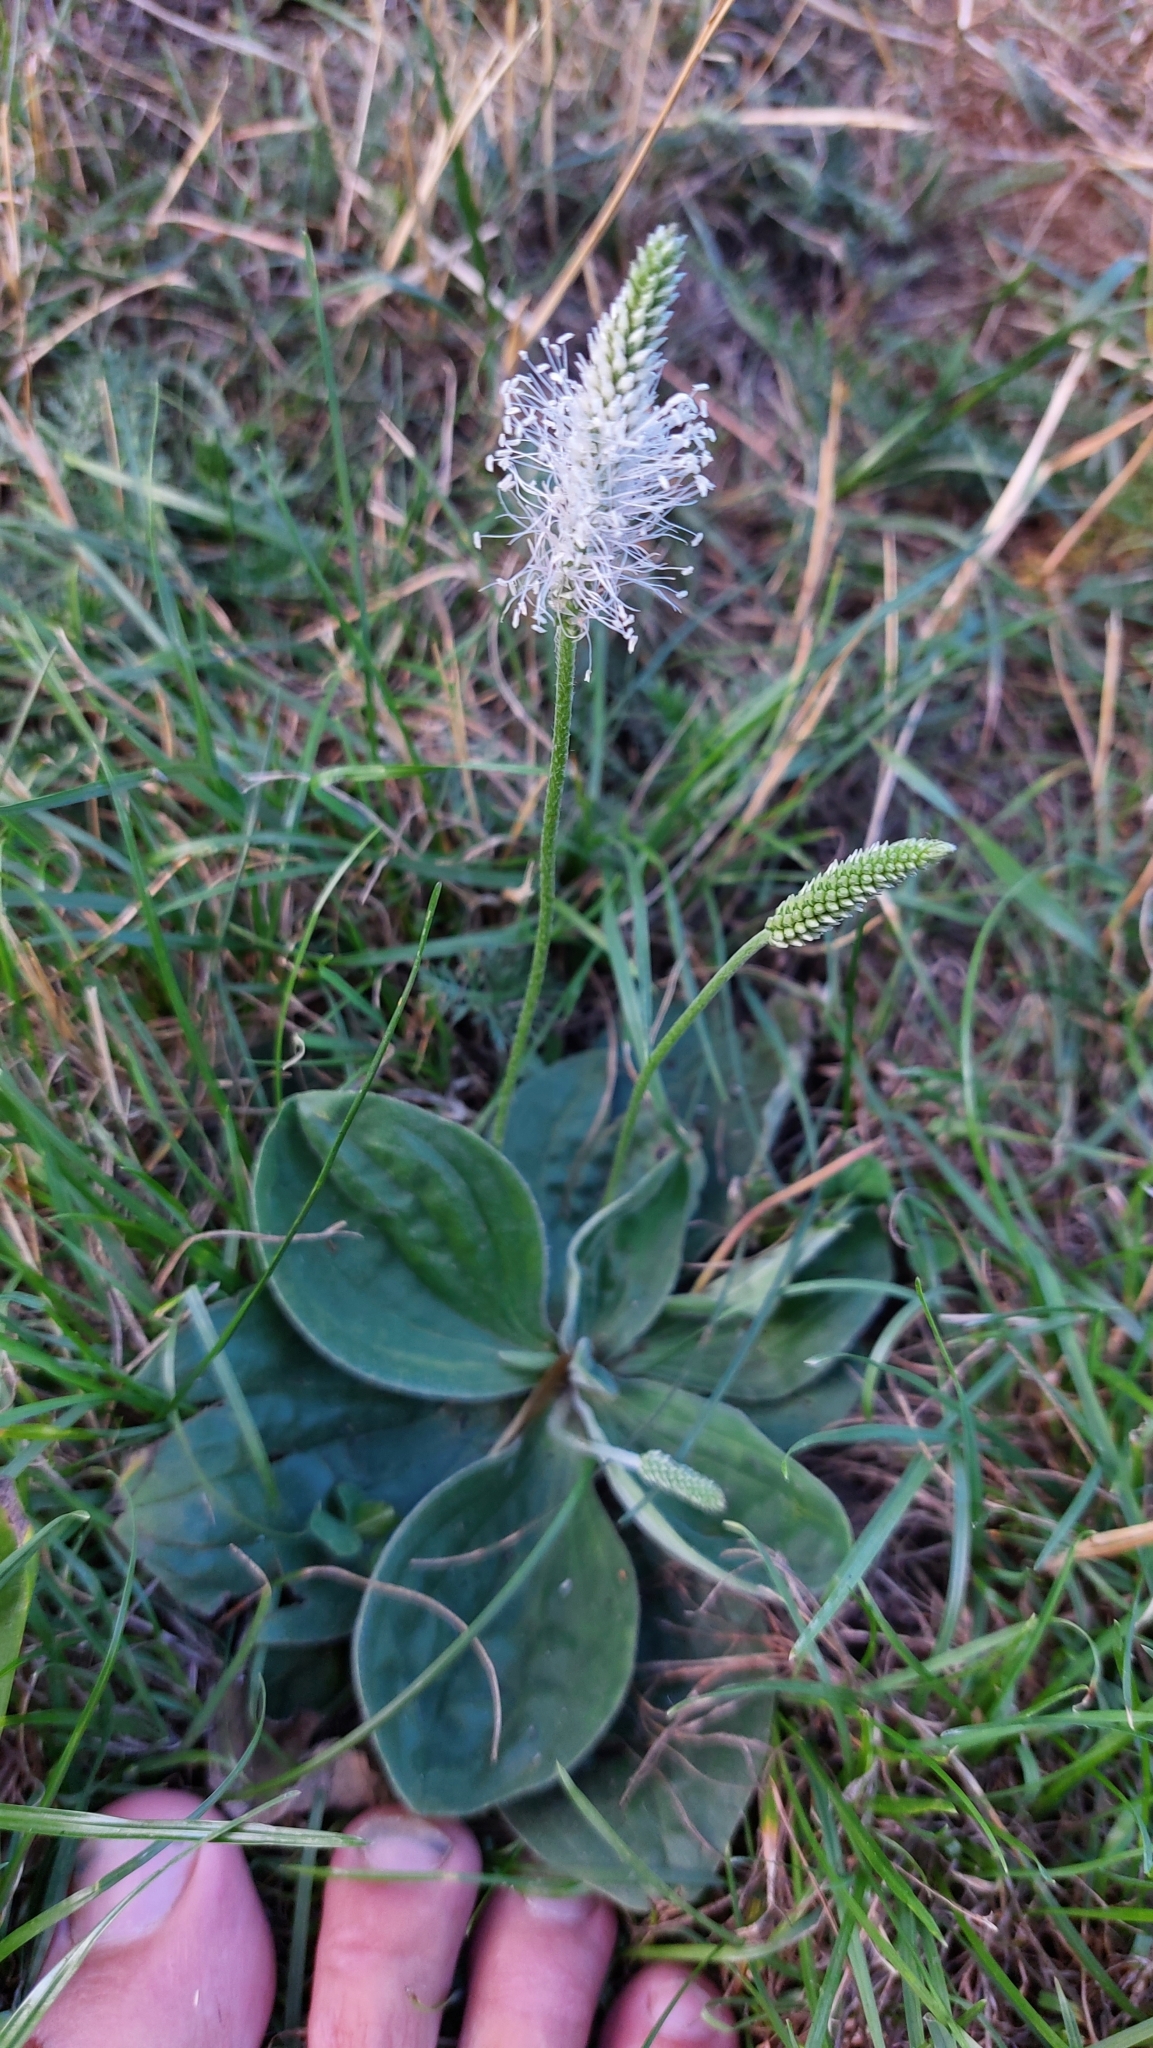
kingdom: Plantae
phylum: Tracheophyta
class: Magnoliopsida
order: Lamiales
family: Plantaginaceae
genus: Plantago
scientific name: Plantago media
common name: Hoary plantain
